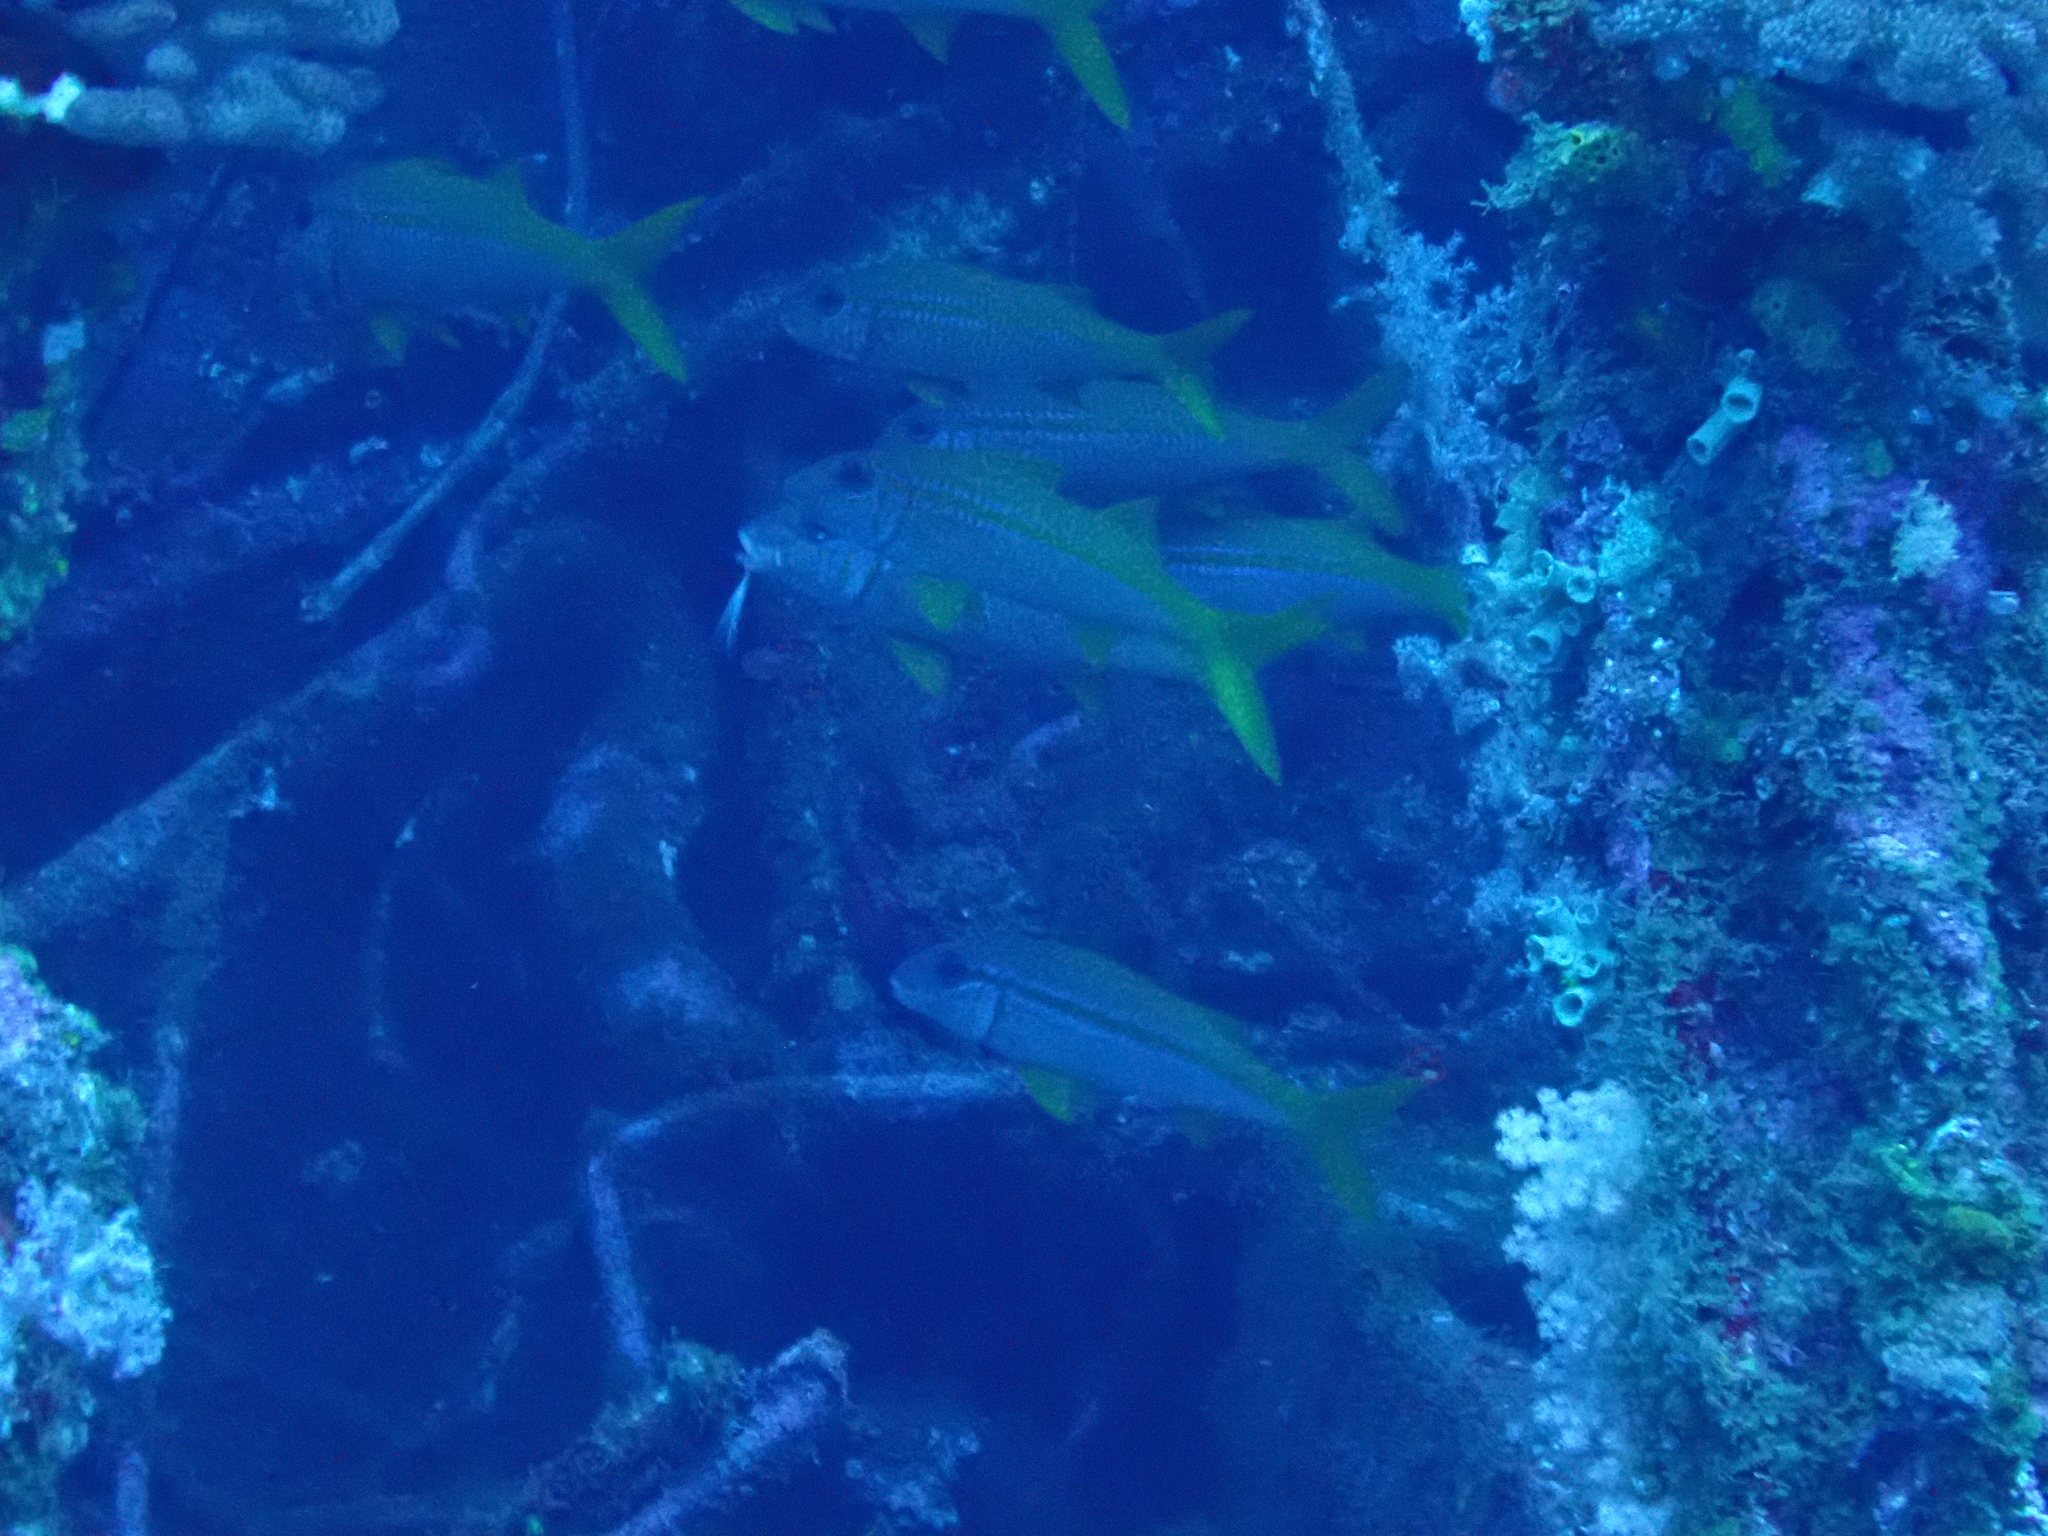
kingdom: Animalia
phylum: Chordata
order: Perciformes
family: Mullidae
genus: Mulloidichthys
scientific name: Mulloidichthys vanicolensis
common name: Yellowfin goatfish
